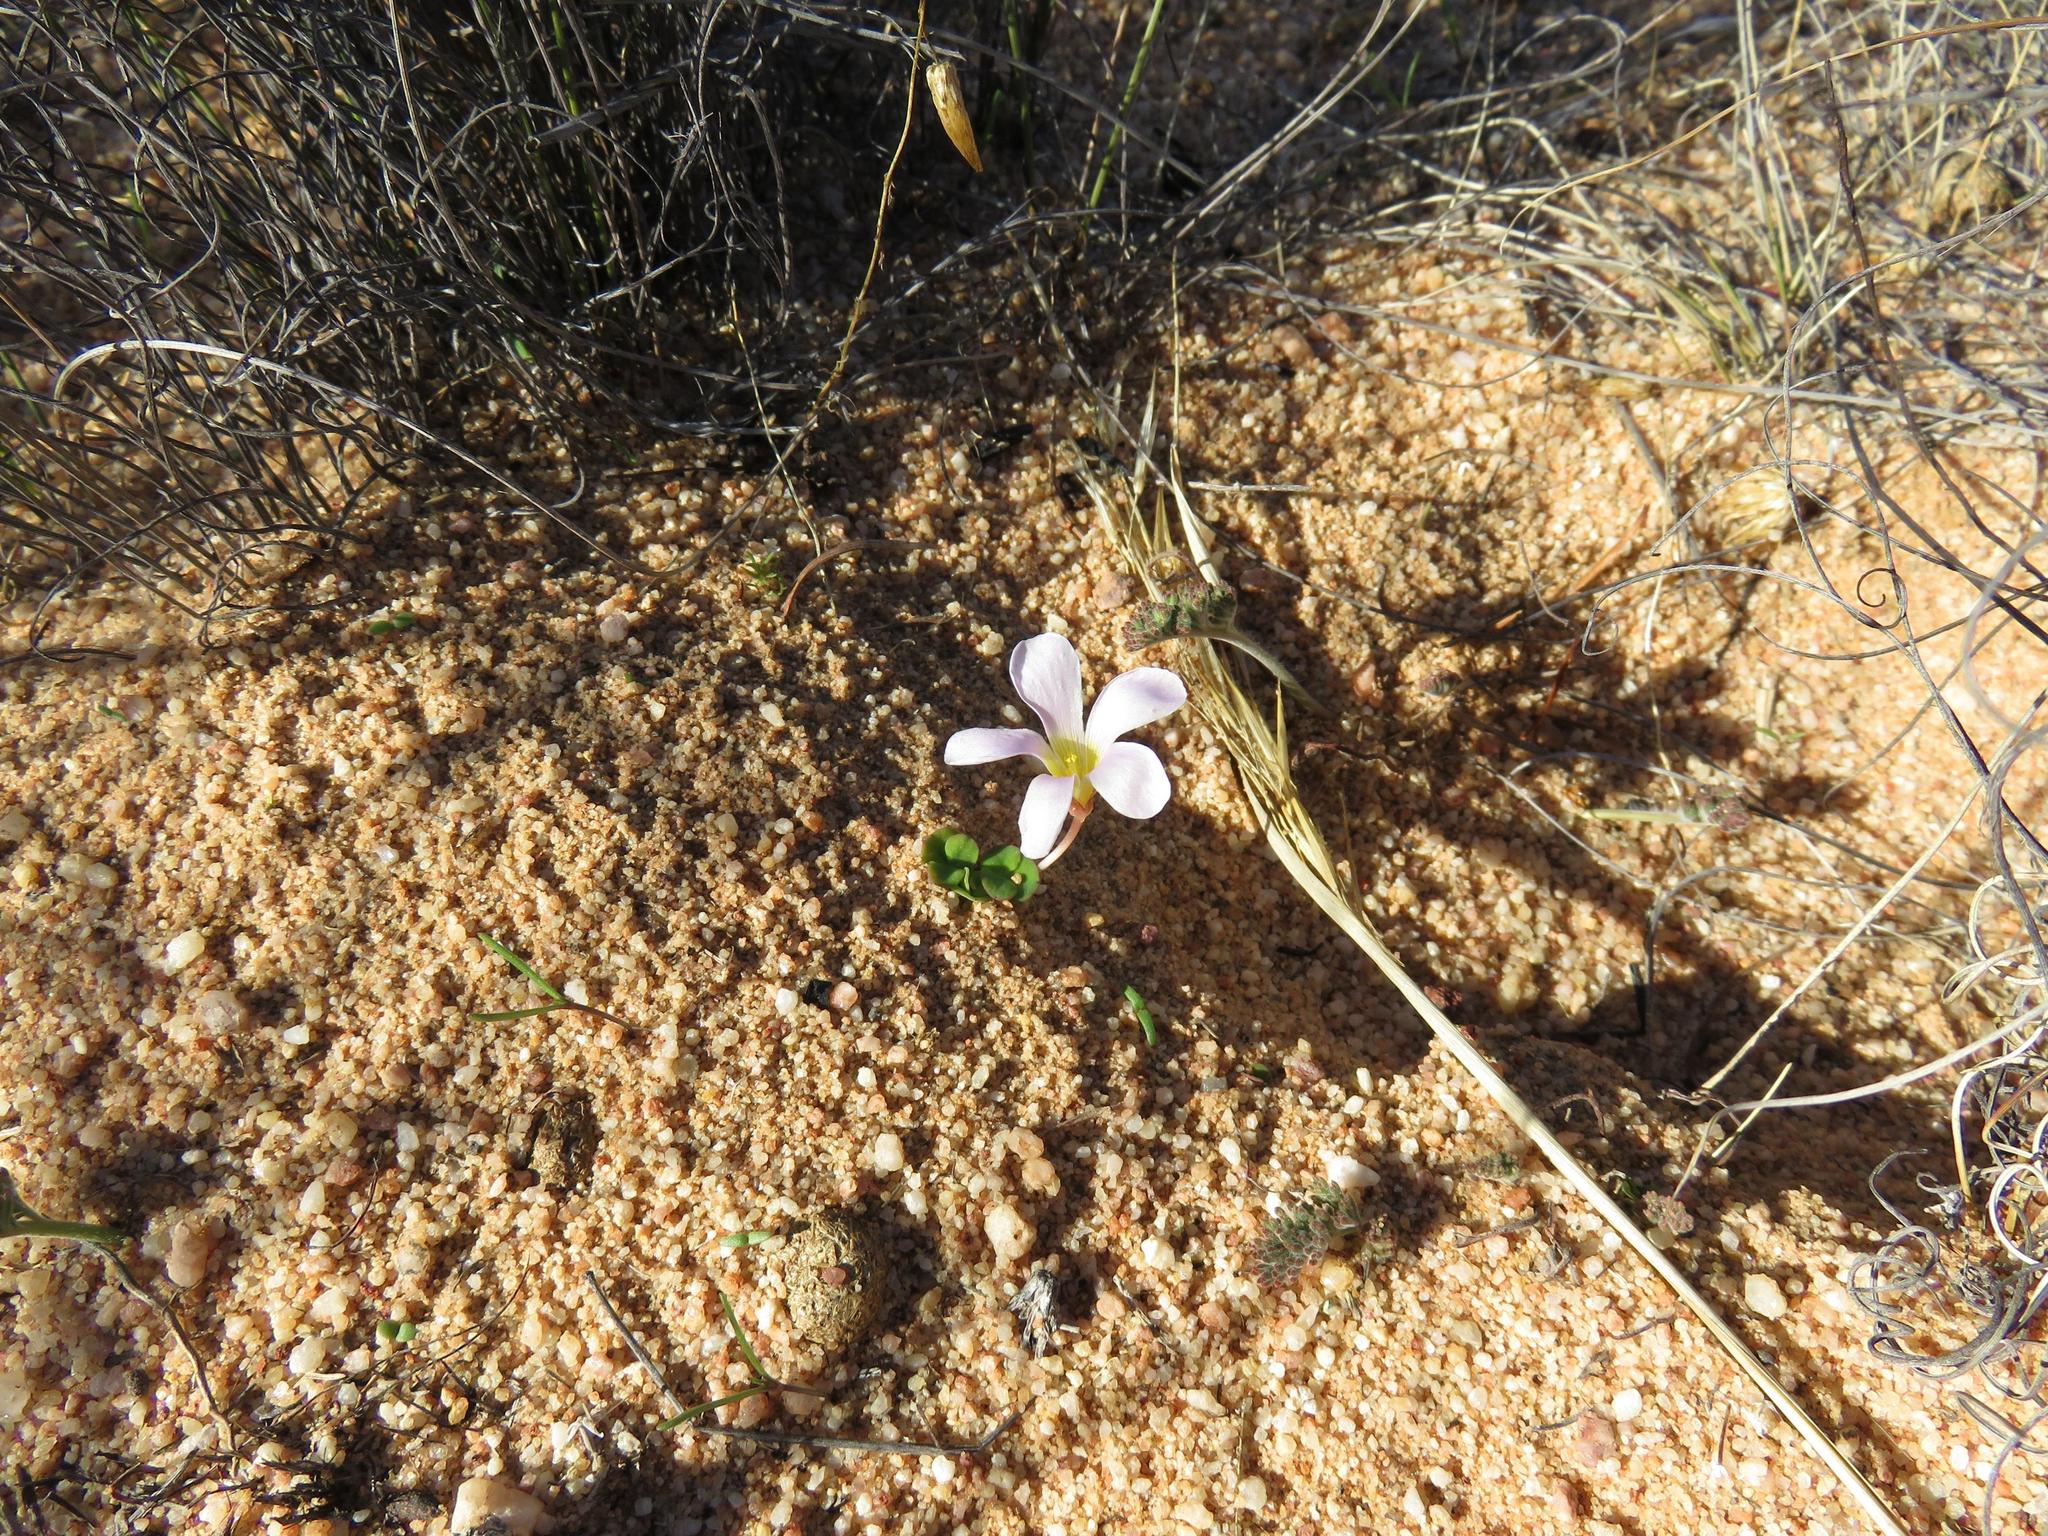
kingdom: Plantae
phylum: Tracheophyta
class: Magnoliopsida
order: Oxalidales
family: Oxalidaceae
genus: Oxalis
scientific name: Oxalis pocockiae
